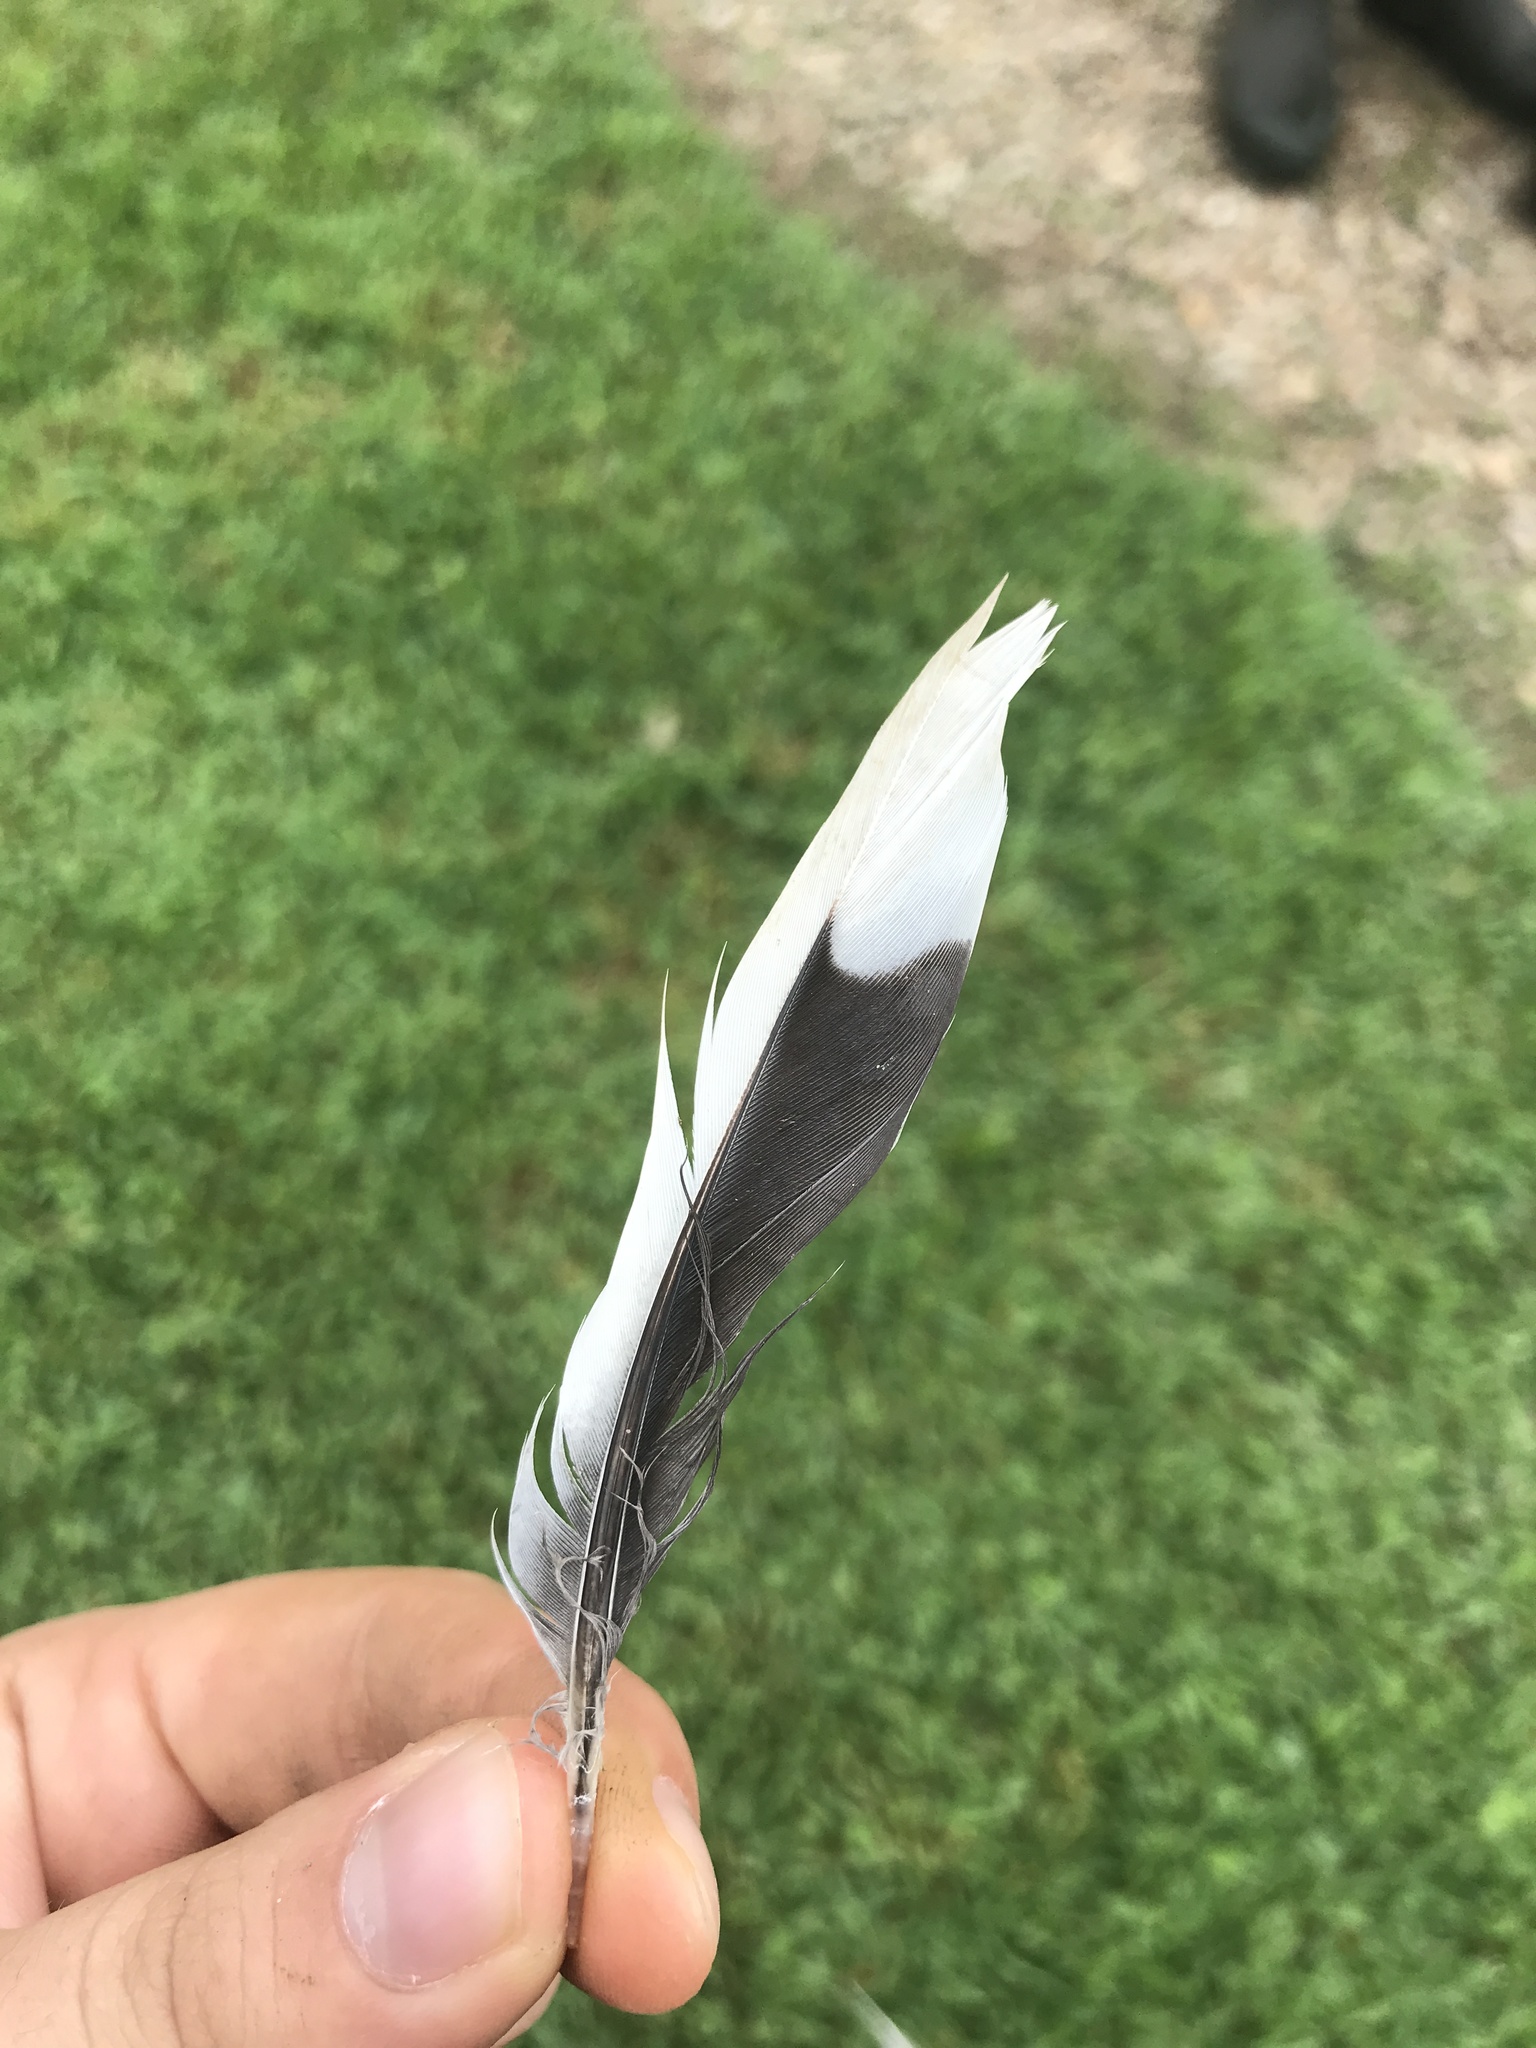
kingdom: Animalia
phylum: Chordata
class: Aves
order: Columbiformes
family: Columbidae
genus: Zenaida
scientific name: Zenaida macroura
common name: Mourning dove
